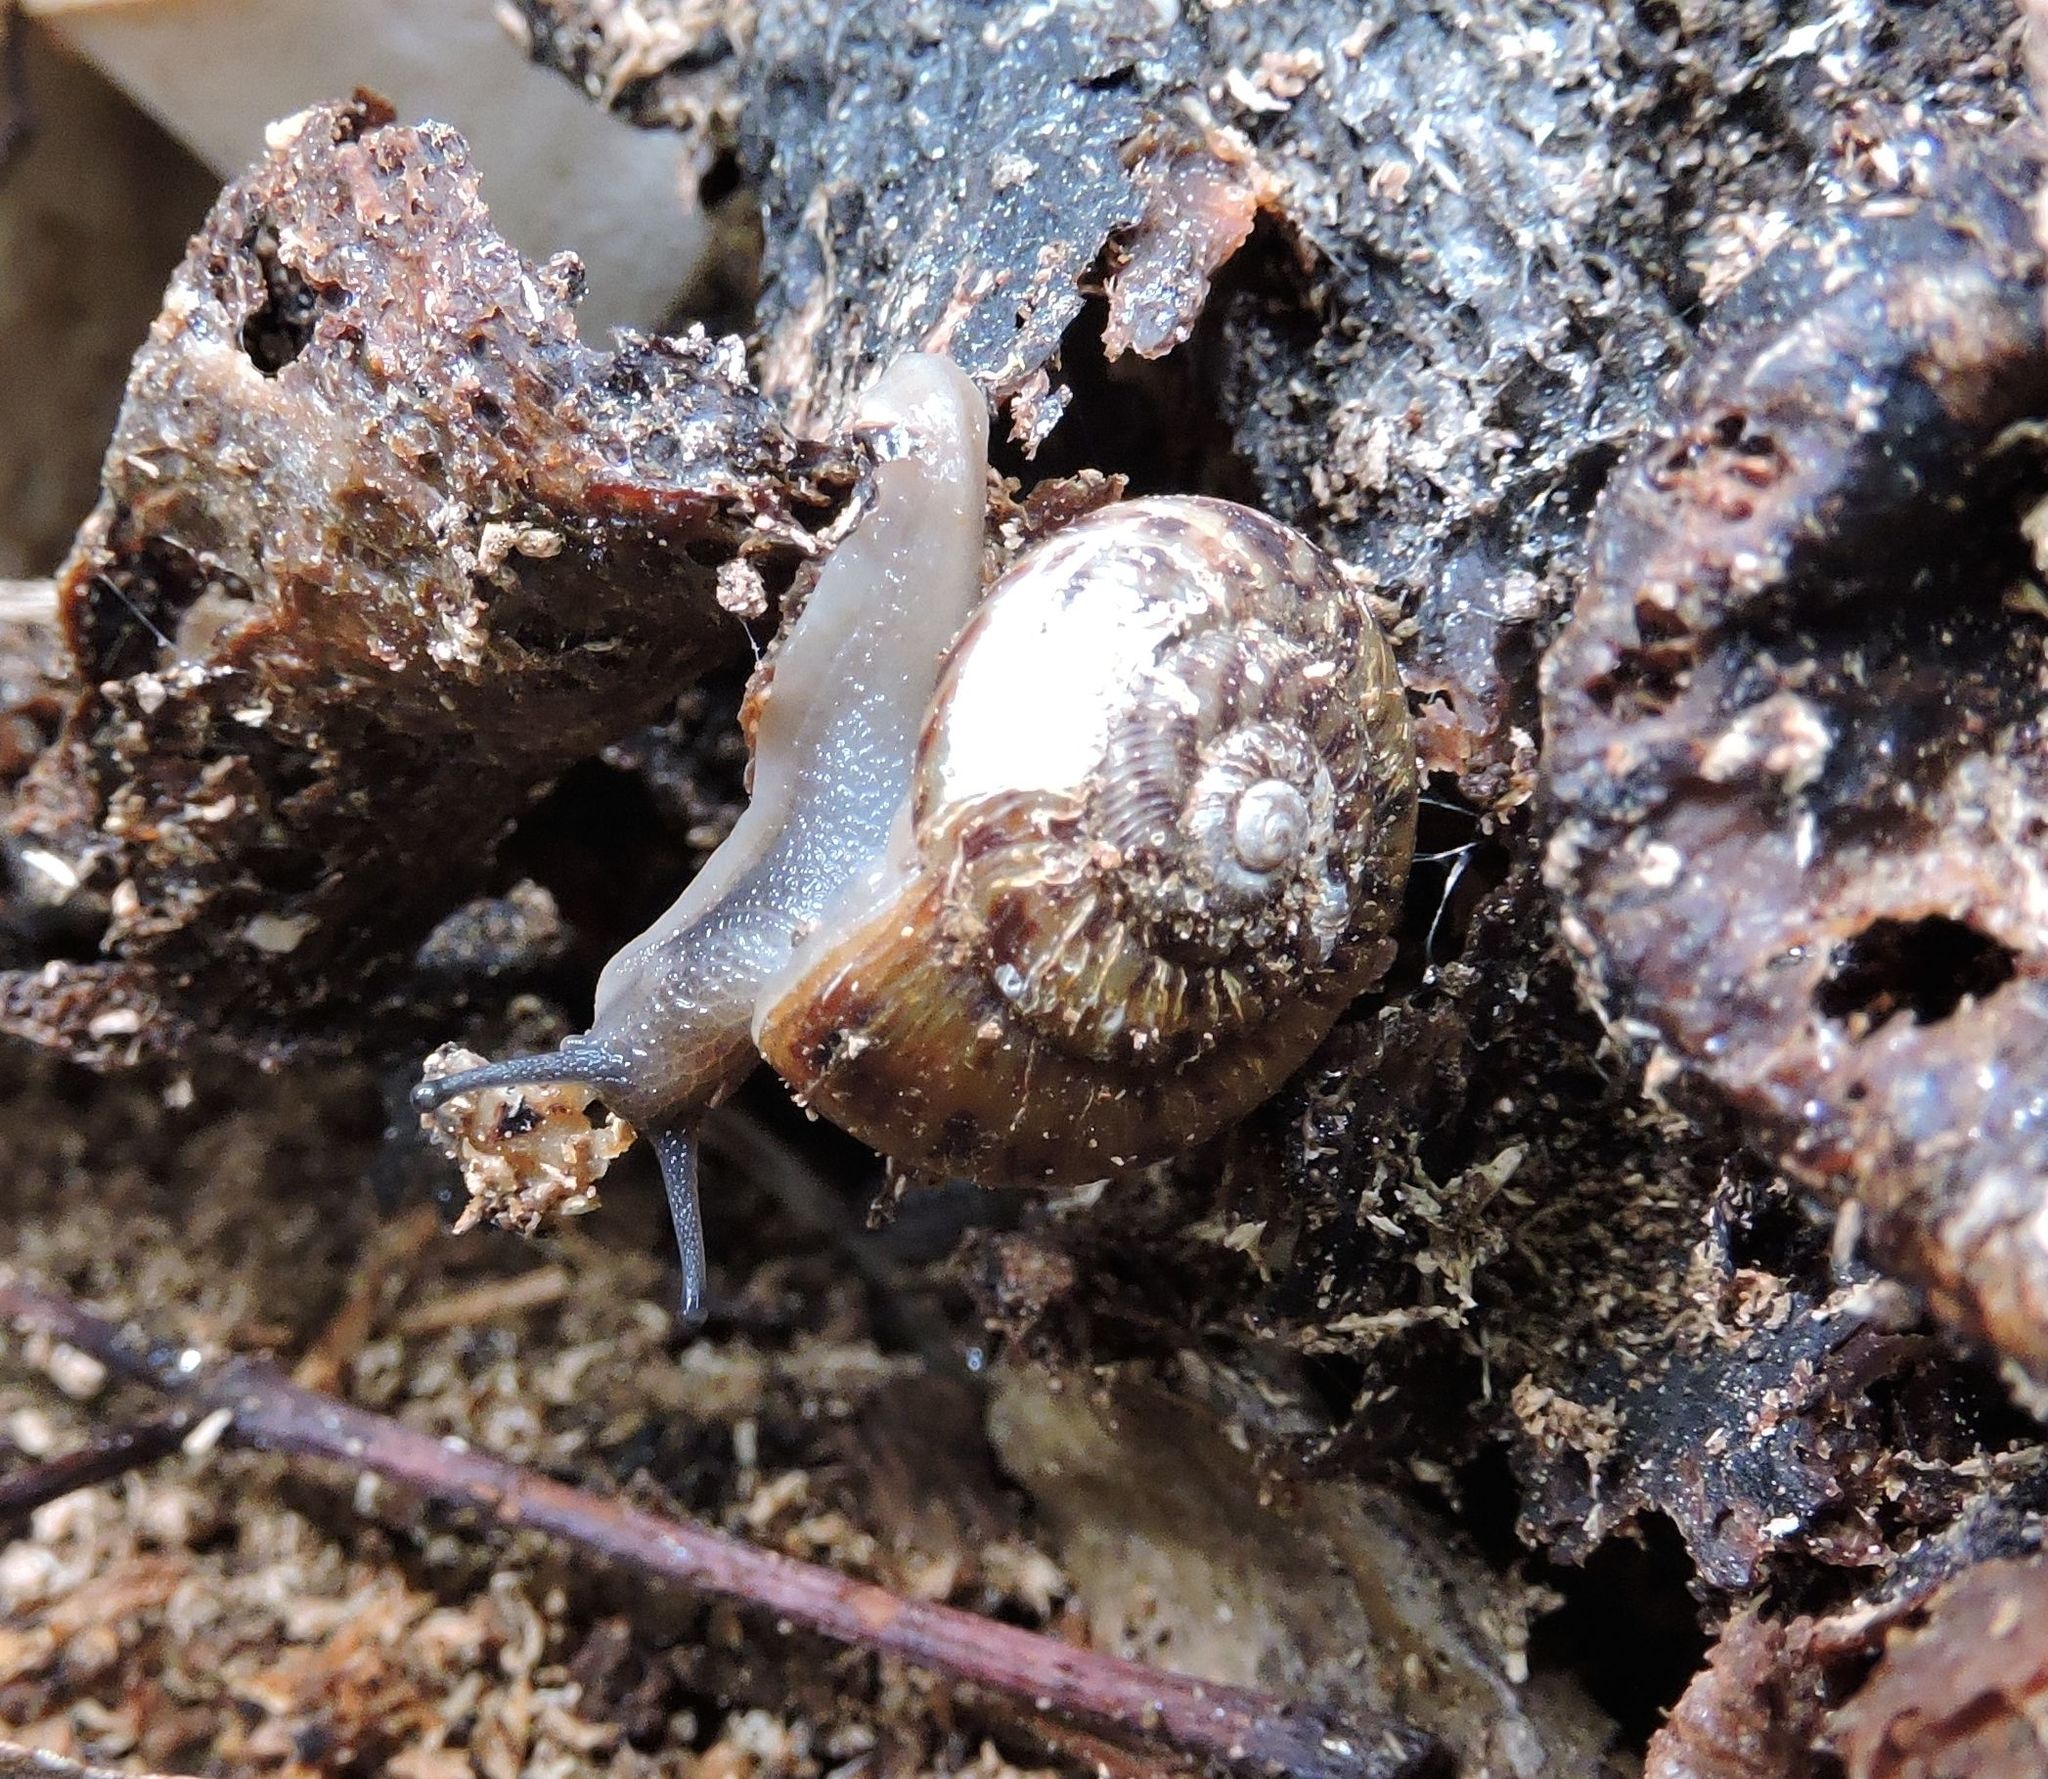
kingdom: Animalia
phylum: Mollusca
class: Gastropoda
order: Stylommatophora
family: Discidae
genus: Anguispira
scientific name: Anguispira alternata
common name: Flamed tigersnail
